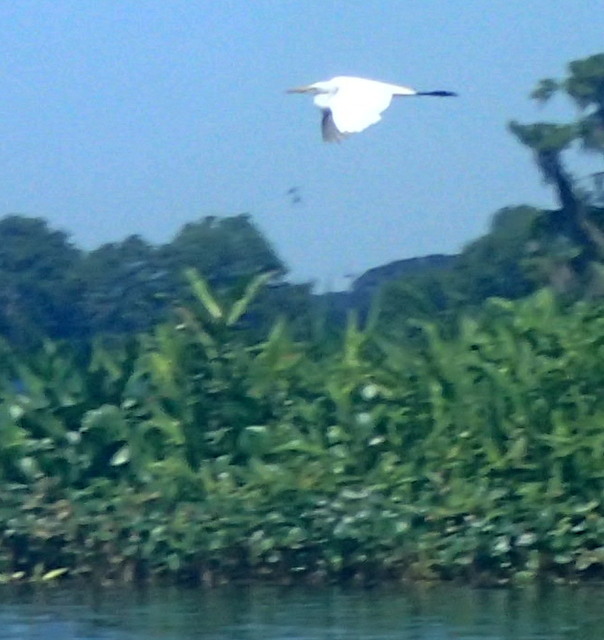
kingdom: Animalia
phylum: Chordata
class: Aves
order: Pelecaniformes
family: Ardeidae
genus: Ardea
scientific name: Ardea alba
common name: Great egret
